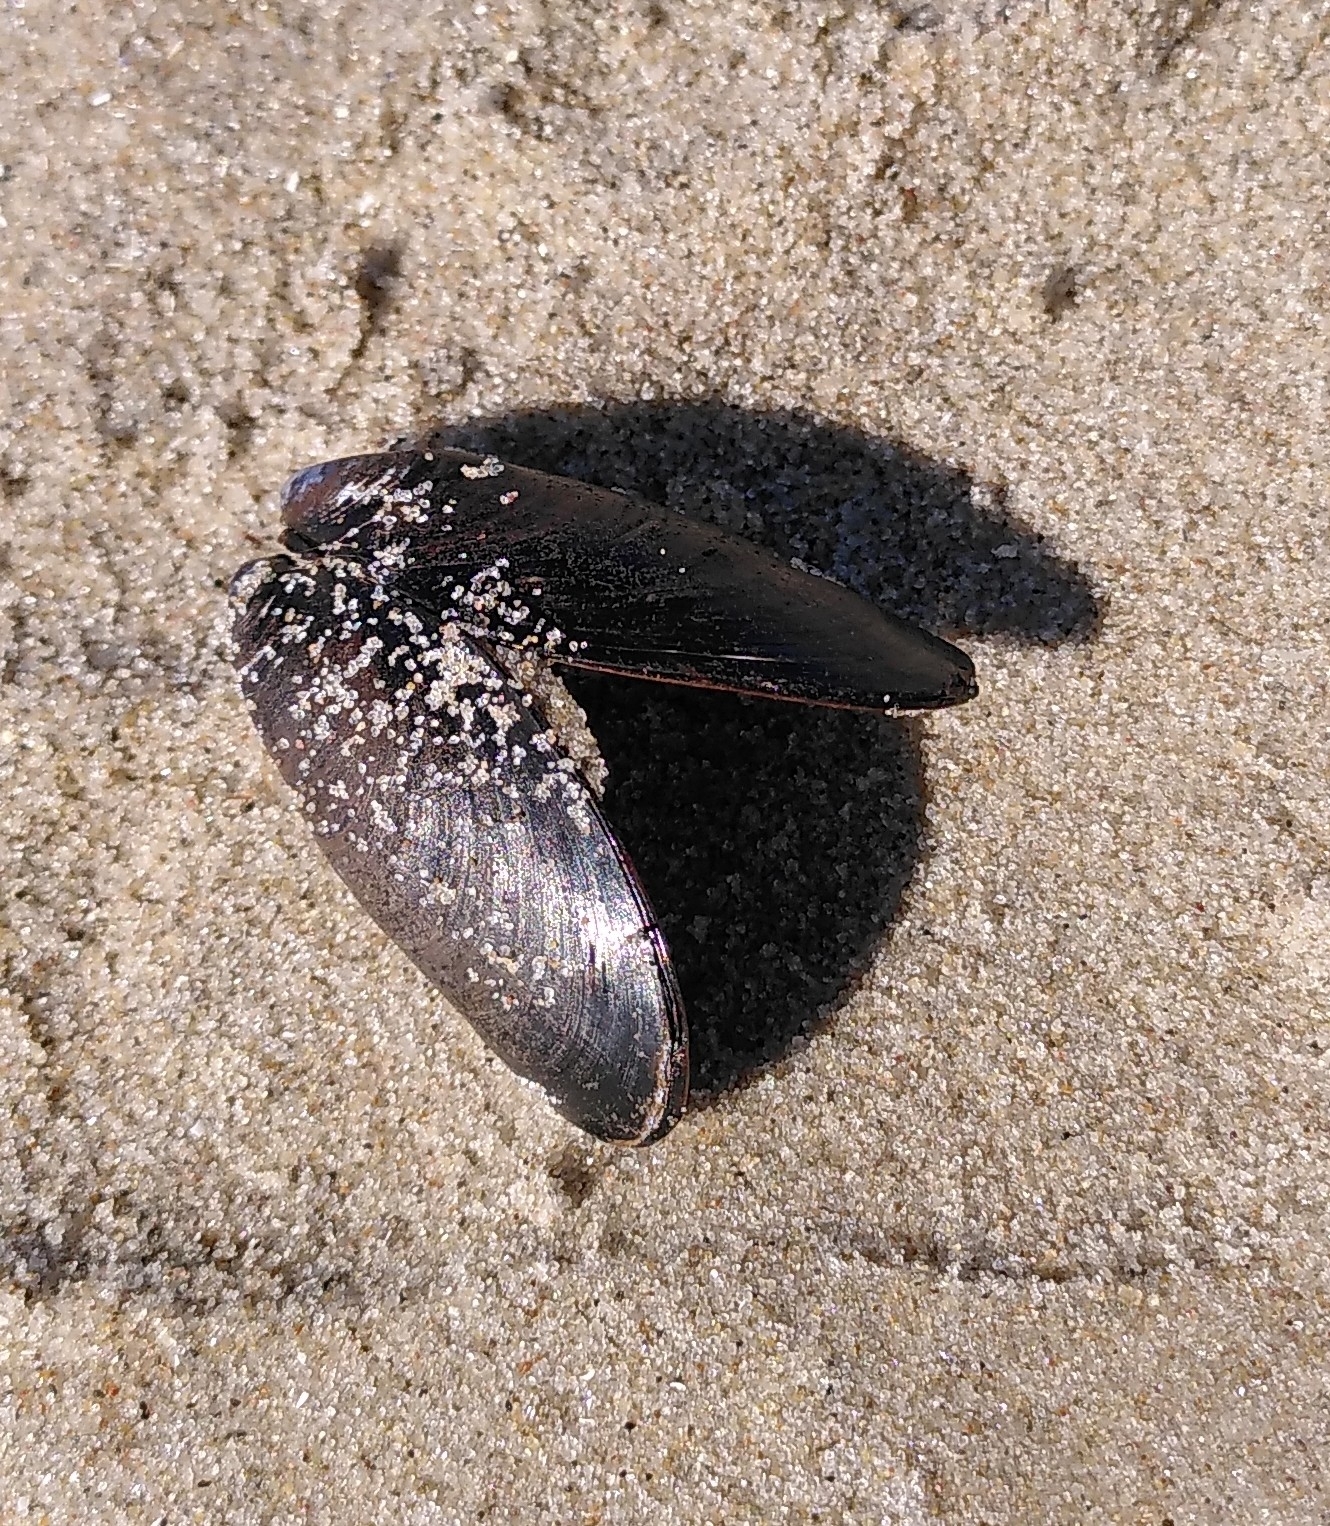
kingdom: Animalia
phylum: Mollusca
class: Bivalvia
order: Mytilida
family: Mytilidae
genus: Mytilus
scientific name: Mytilus edulis
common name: Blue mussel
